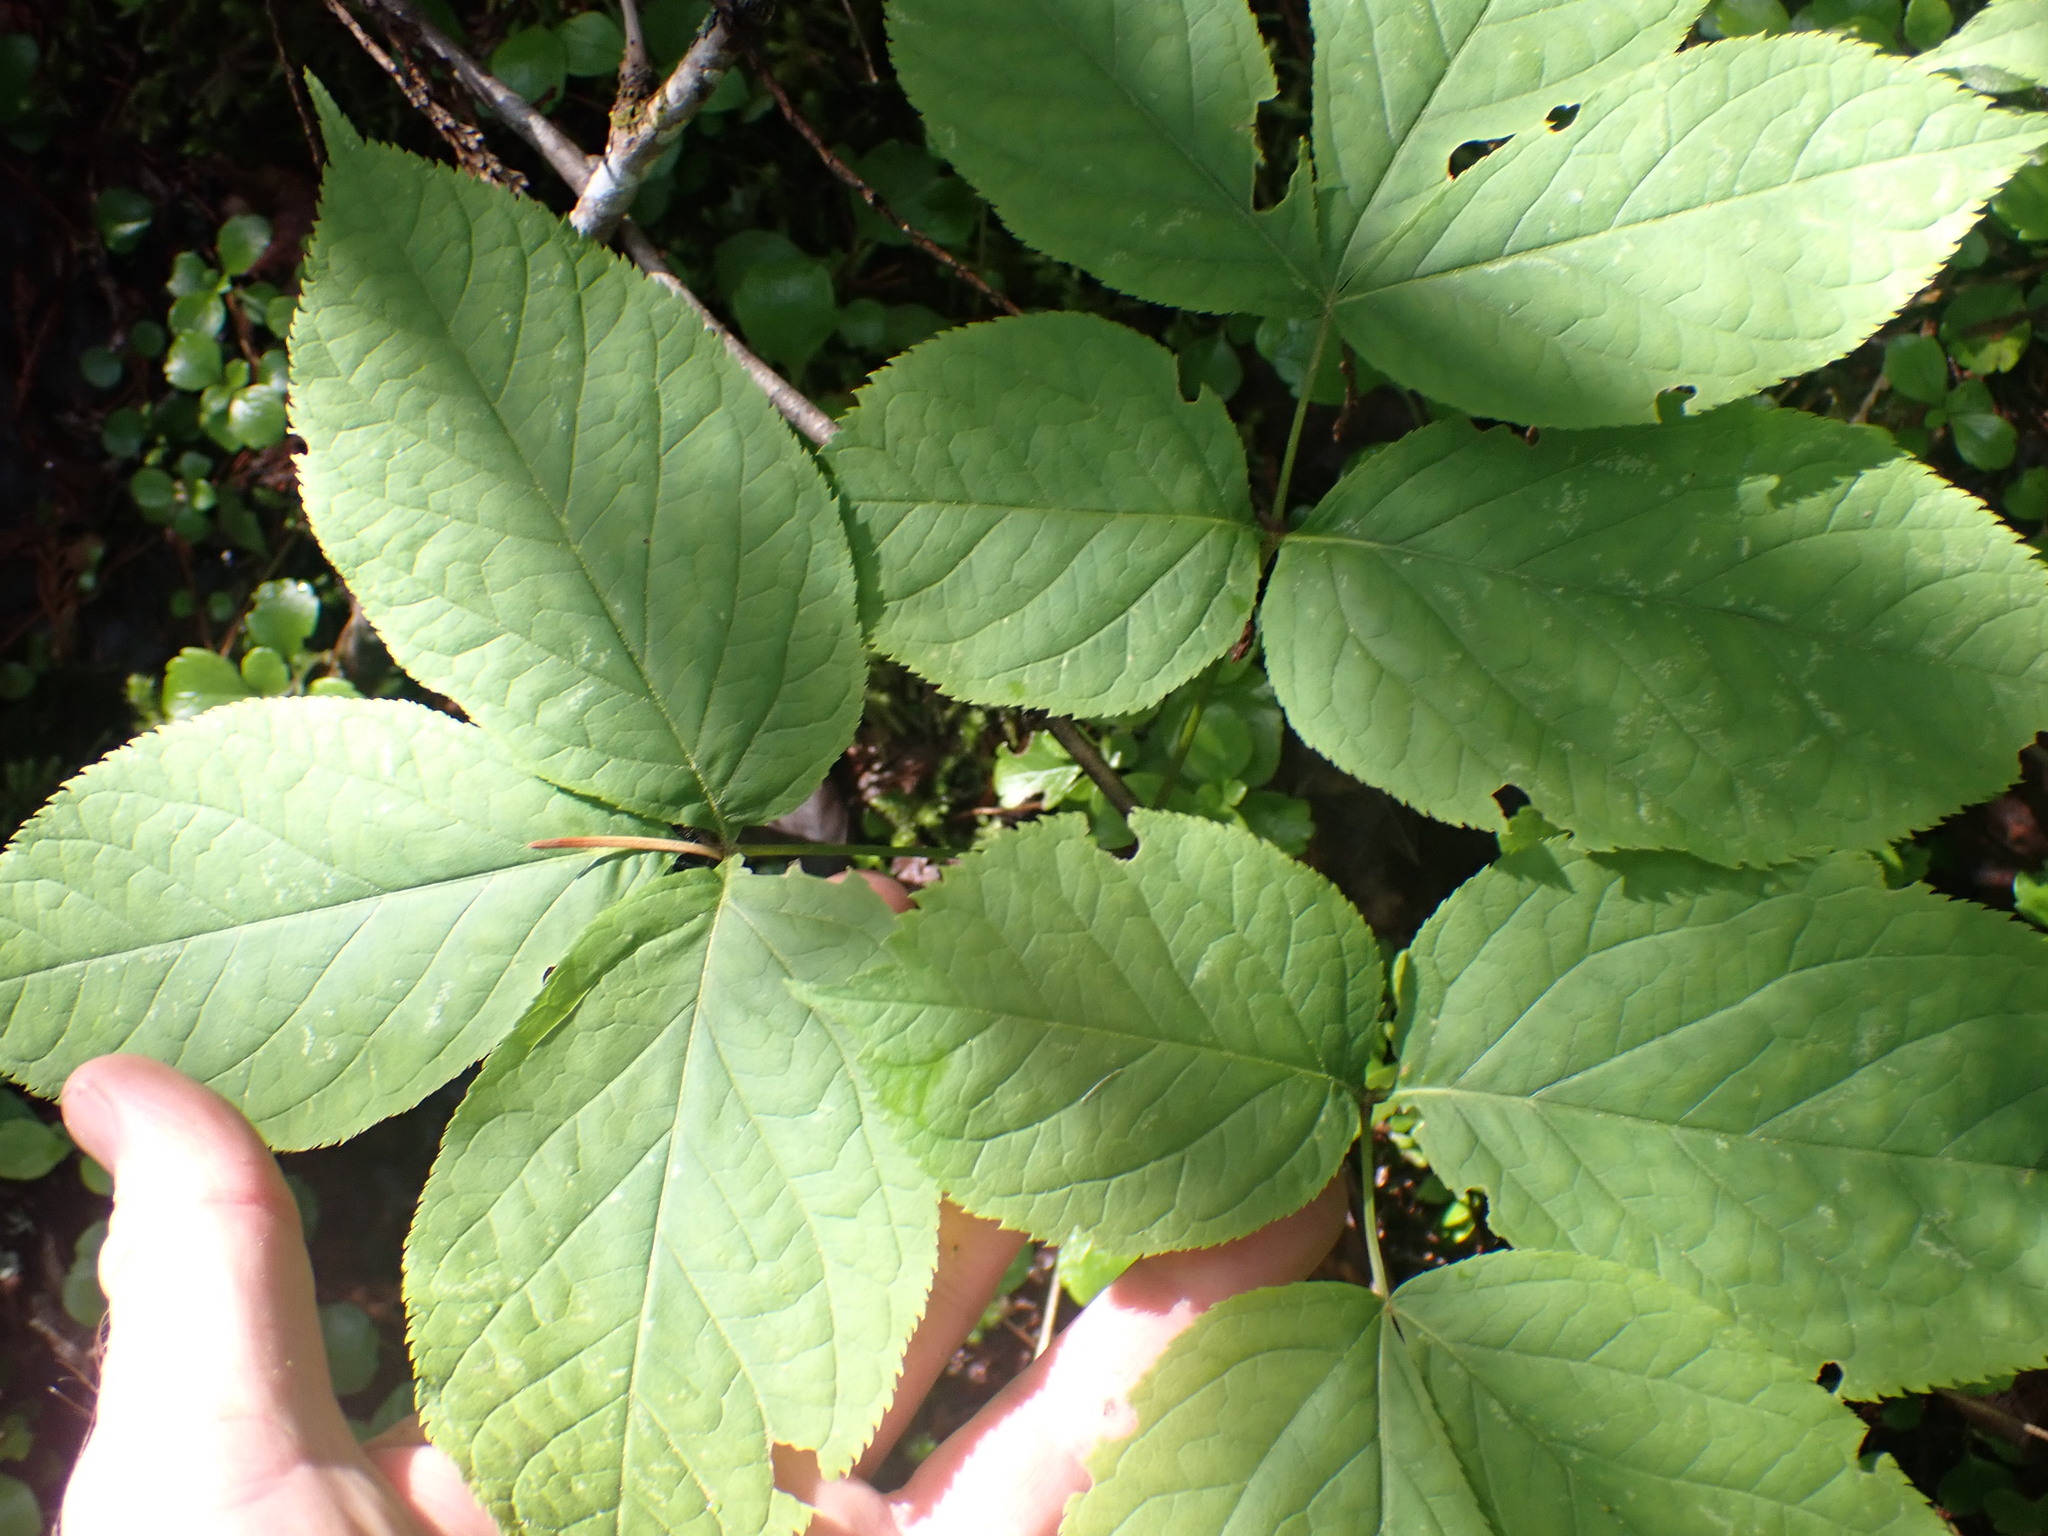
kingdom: Plantae
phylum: Tracheophyta
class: Magnoliopsida
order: Apiales
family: Araliaceae
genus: Aralia
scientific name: Aralia nudicaulis
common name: Wild sarsaparilla
